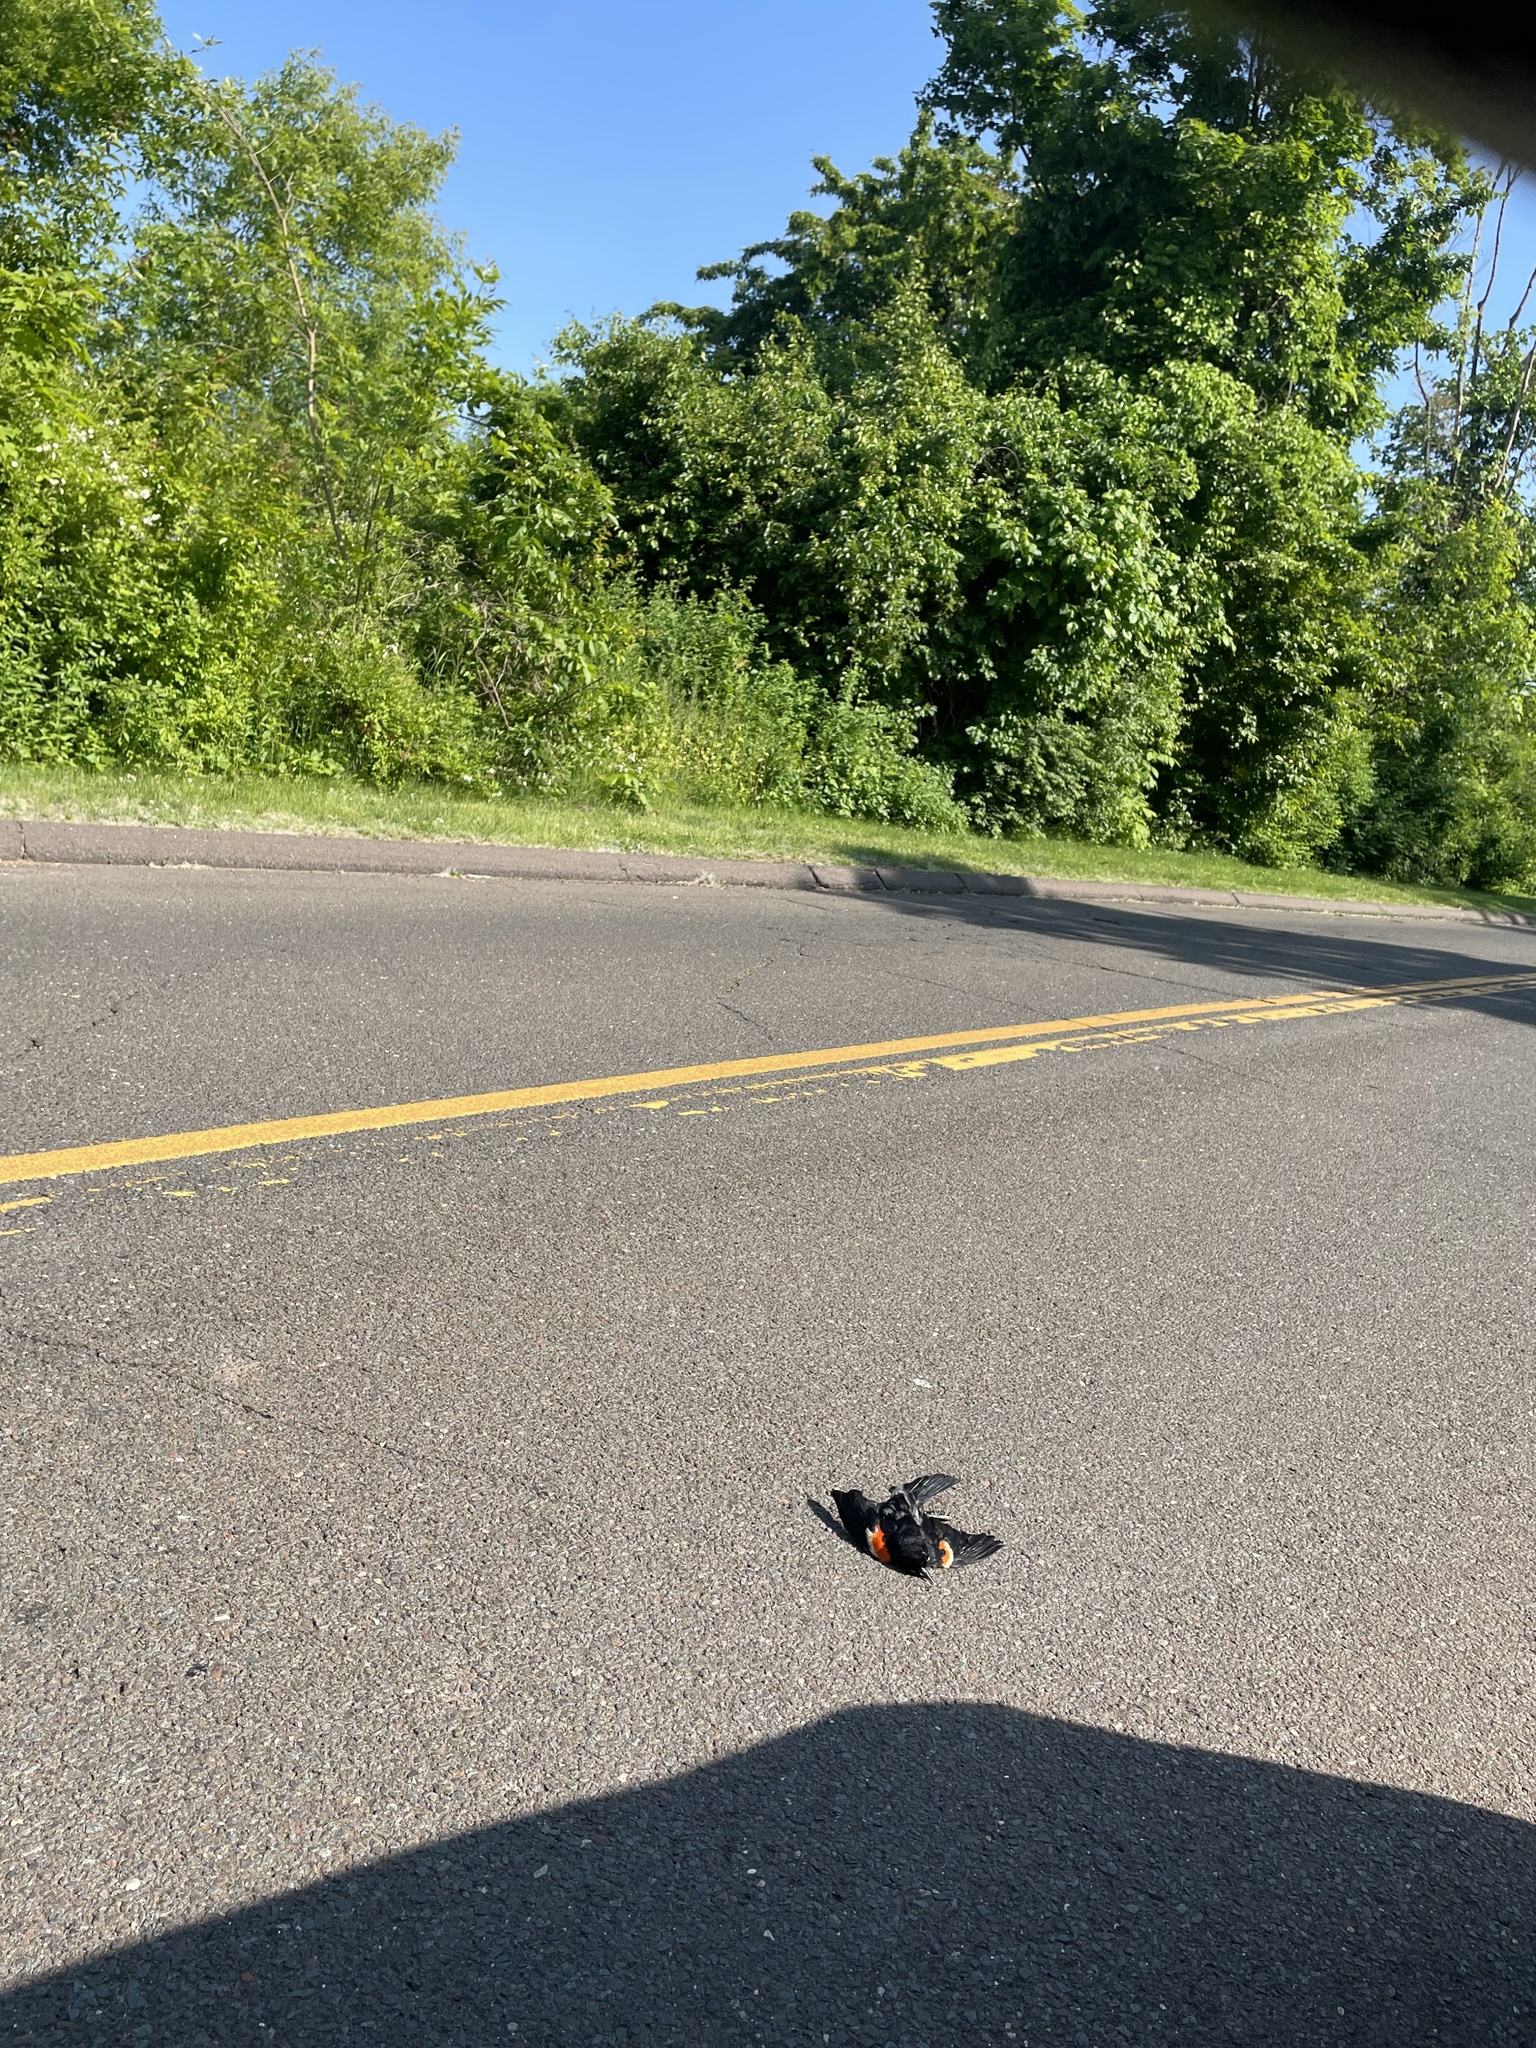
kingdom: Animalia
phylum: Chordata
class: Aves
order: Passeriformes
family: Icteridae
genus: Agelaius
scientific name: Agelaius phoeniceus
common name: Red-winged blackbird
